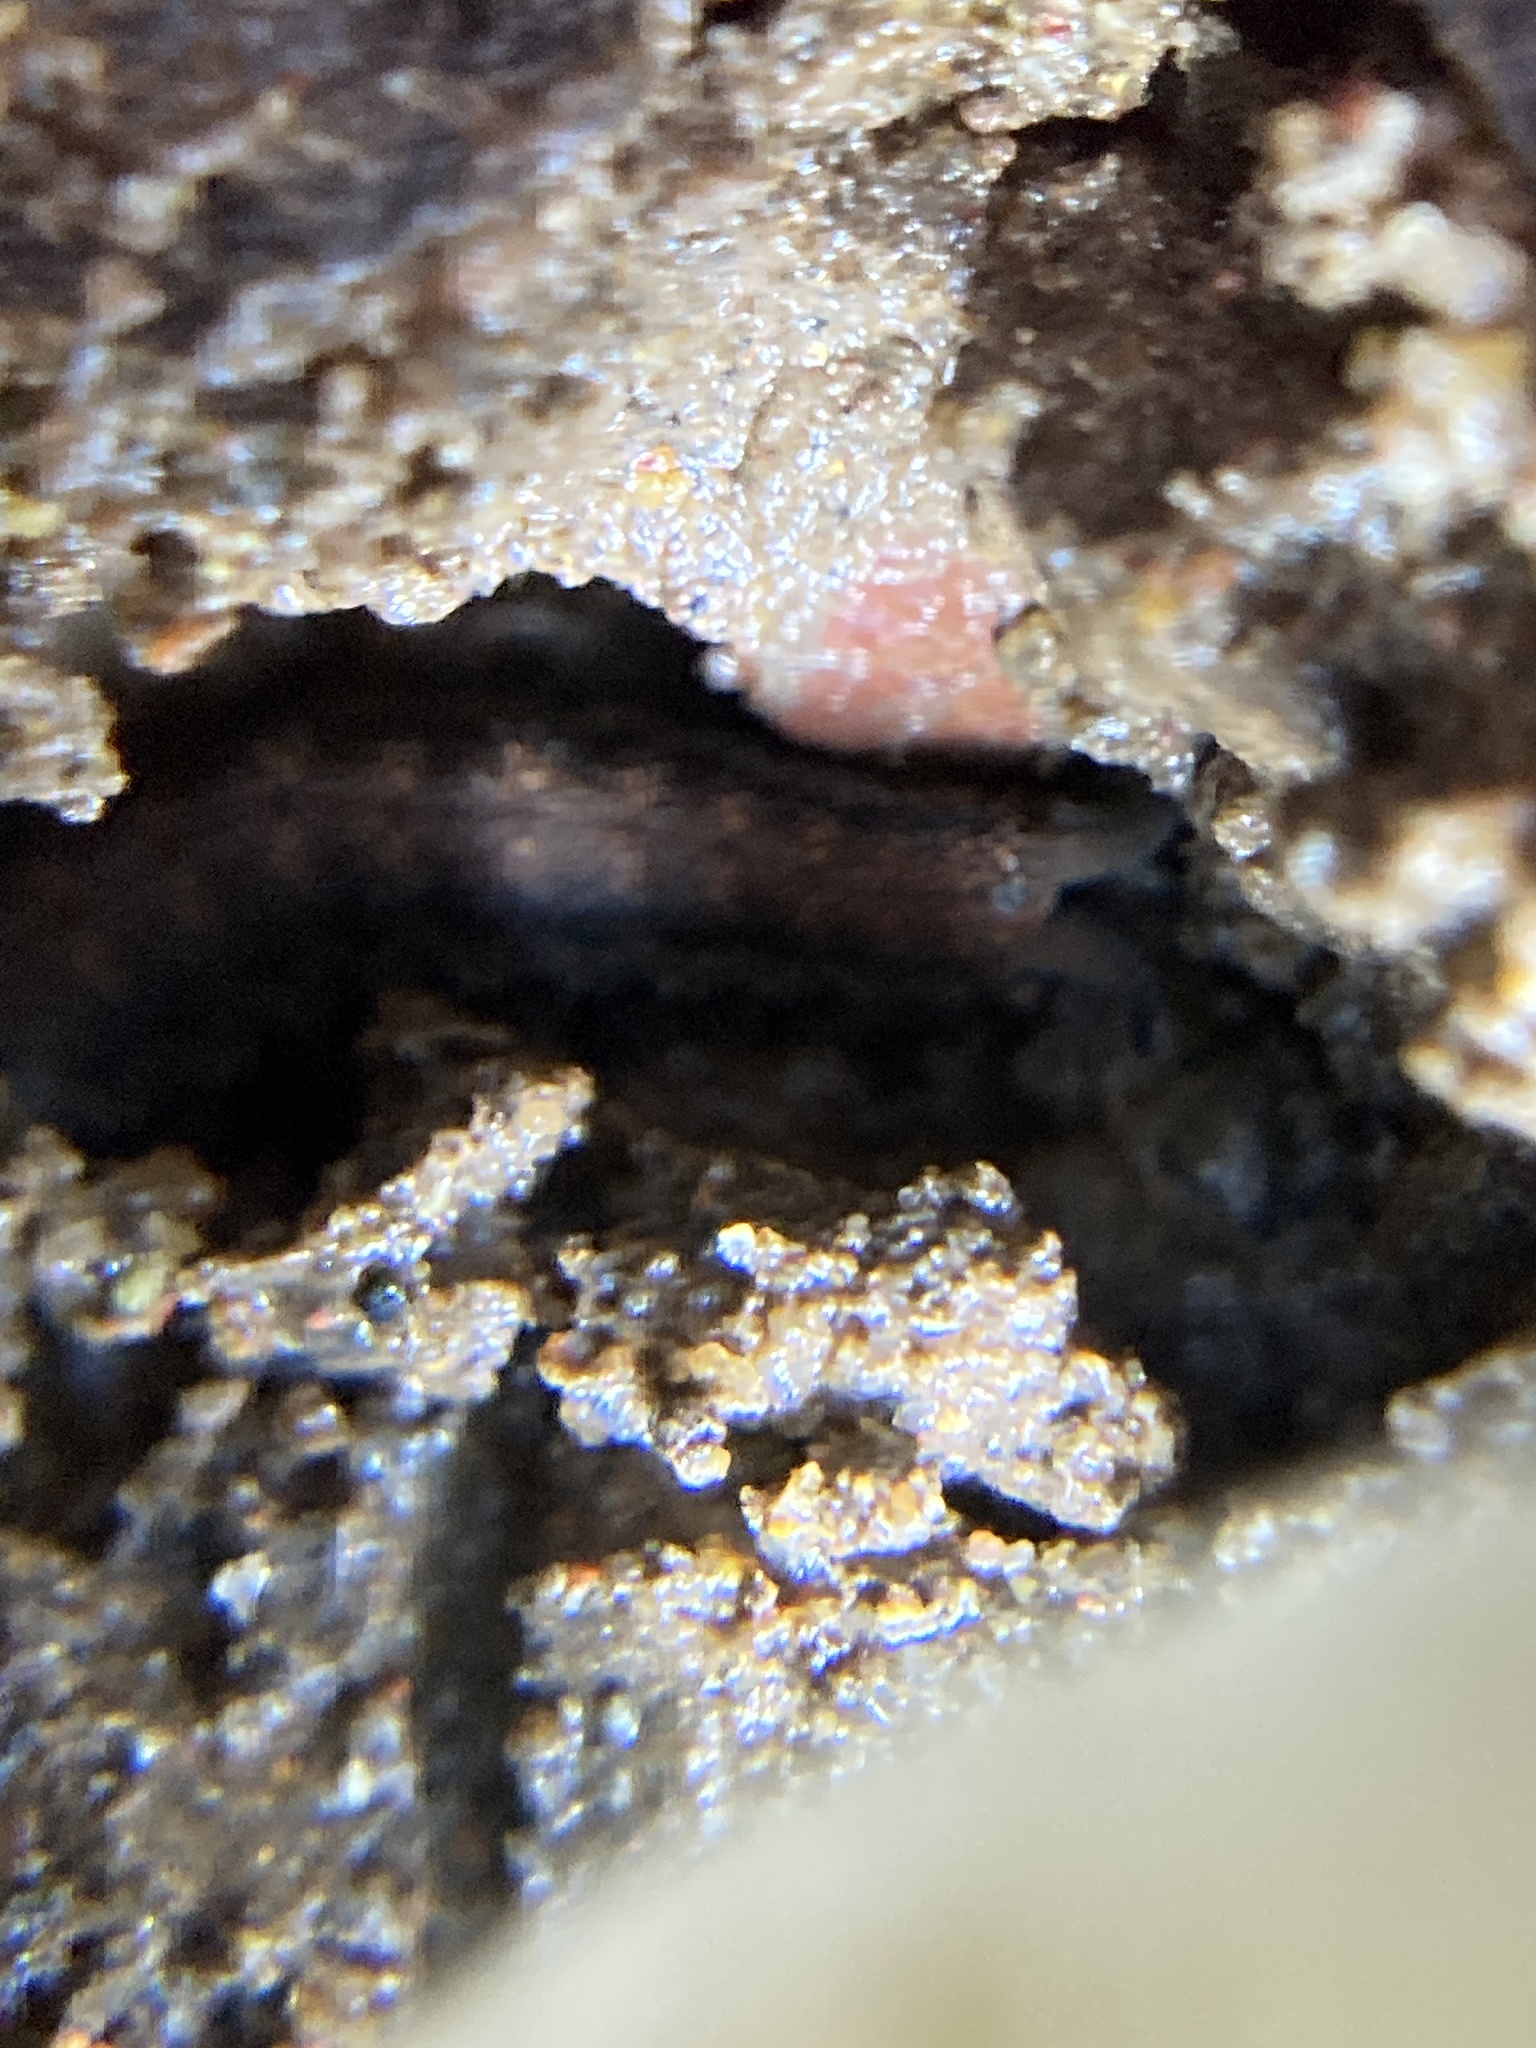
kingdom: Animalia
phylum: Onychophora
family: Peripatopsidae
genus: Anoplokaros
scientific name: Anoplokaros keerensis
